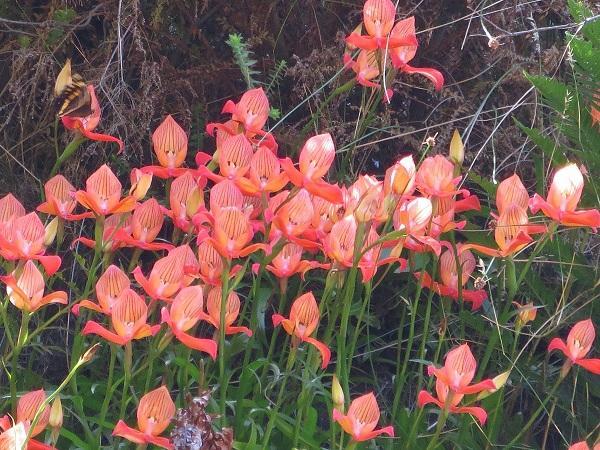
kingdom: Plantae
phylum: Tracheophyta
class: Liliopsida
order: Asparagales
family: Orchidaceae
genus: Disa
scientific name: Disa uniflora
